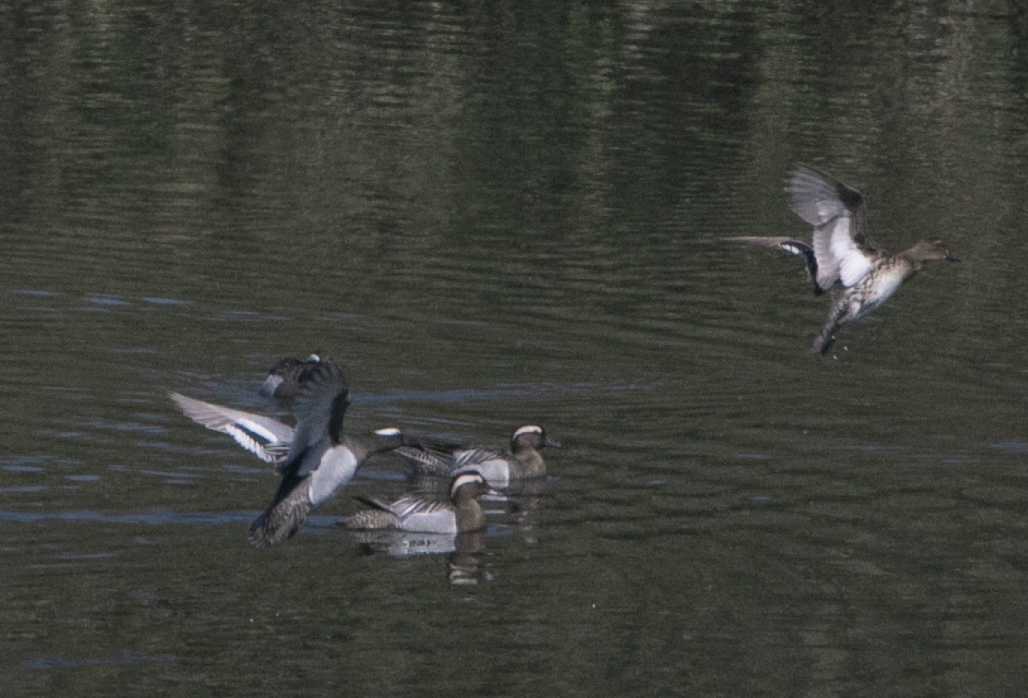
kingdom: Animalia
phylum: Chordata
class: Aves
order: Anseriformes
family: Anatidae
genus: Spatula
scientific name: Spatula querquedula
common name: Garganey
